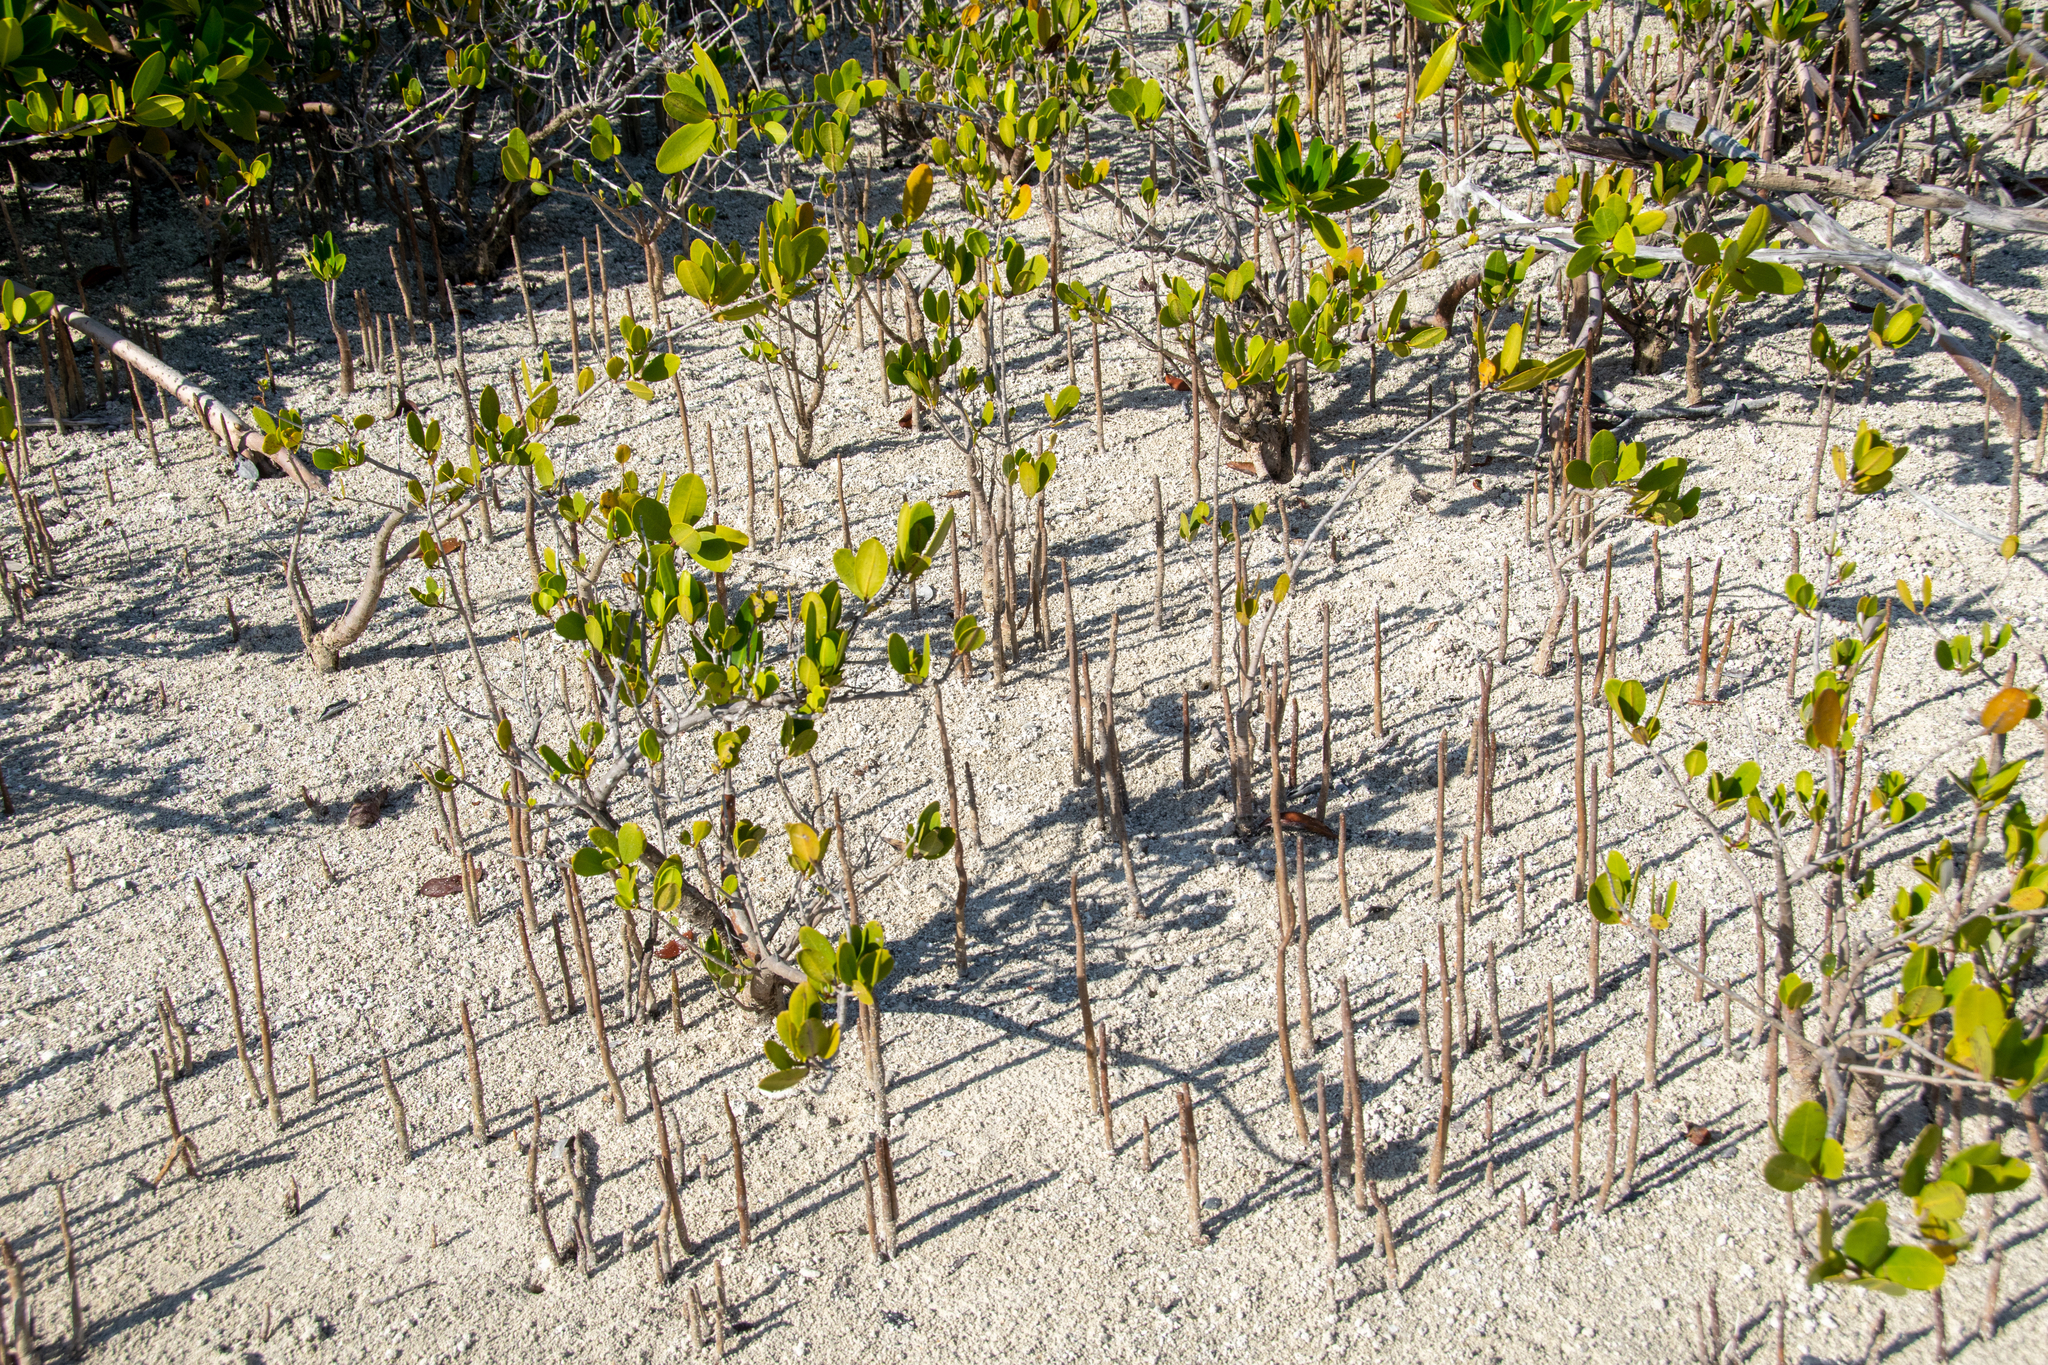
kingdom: Plantae
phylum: Tracheophyta
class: Magnoliopsida
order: Lamiales
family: Acanthaceae
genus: Avicennia
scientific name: Avicennia germinans
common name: Black mangrove
